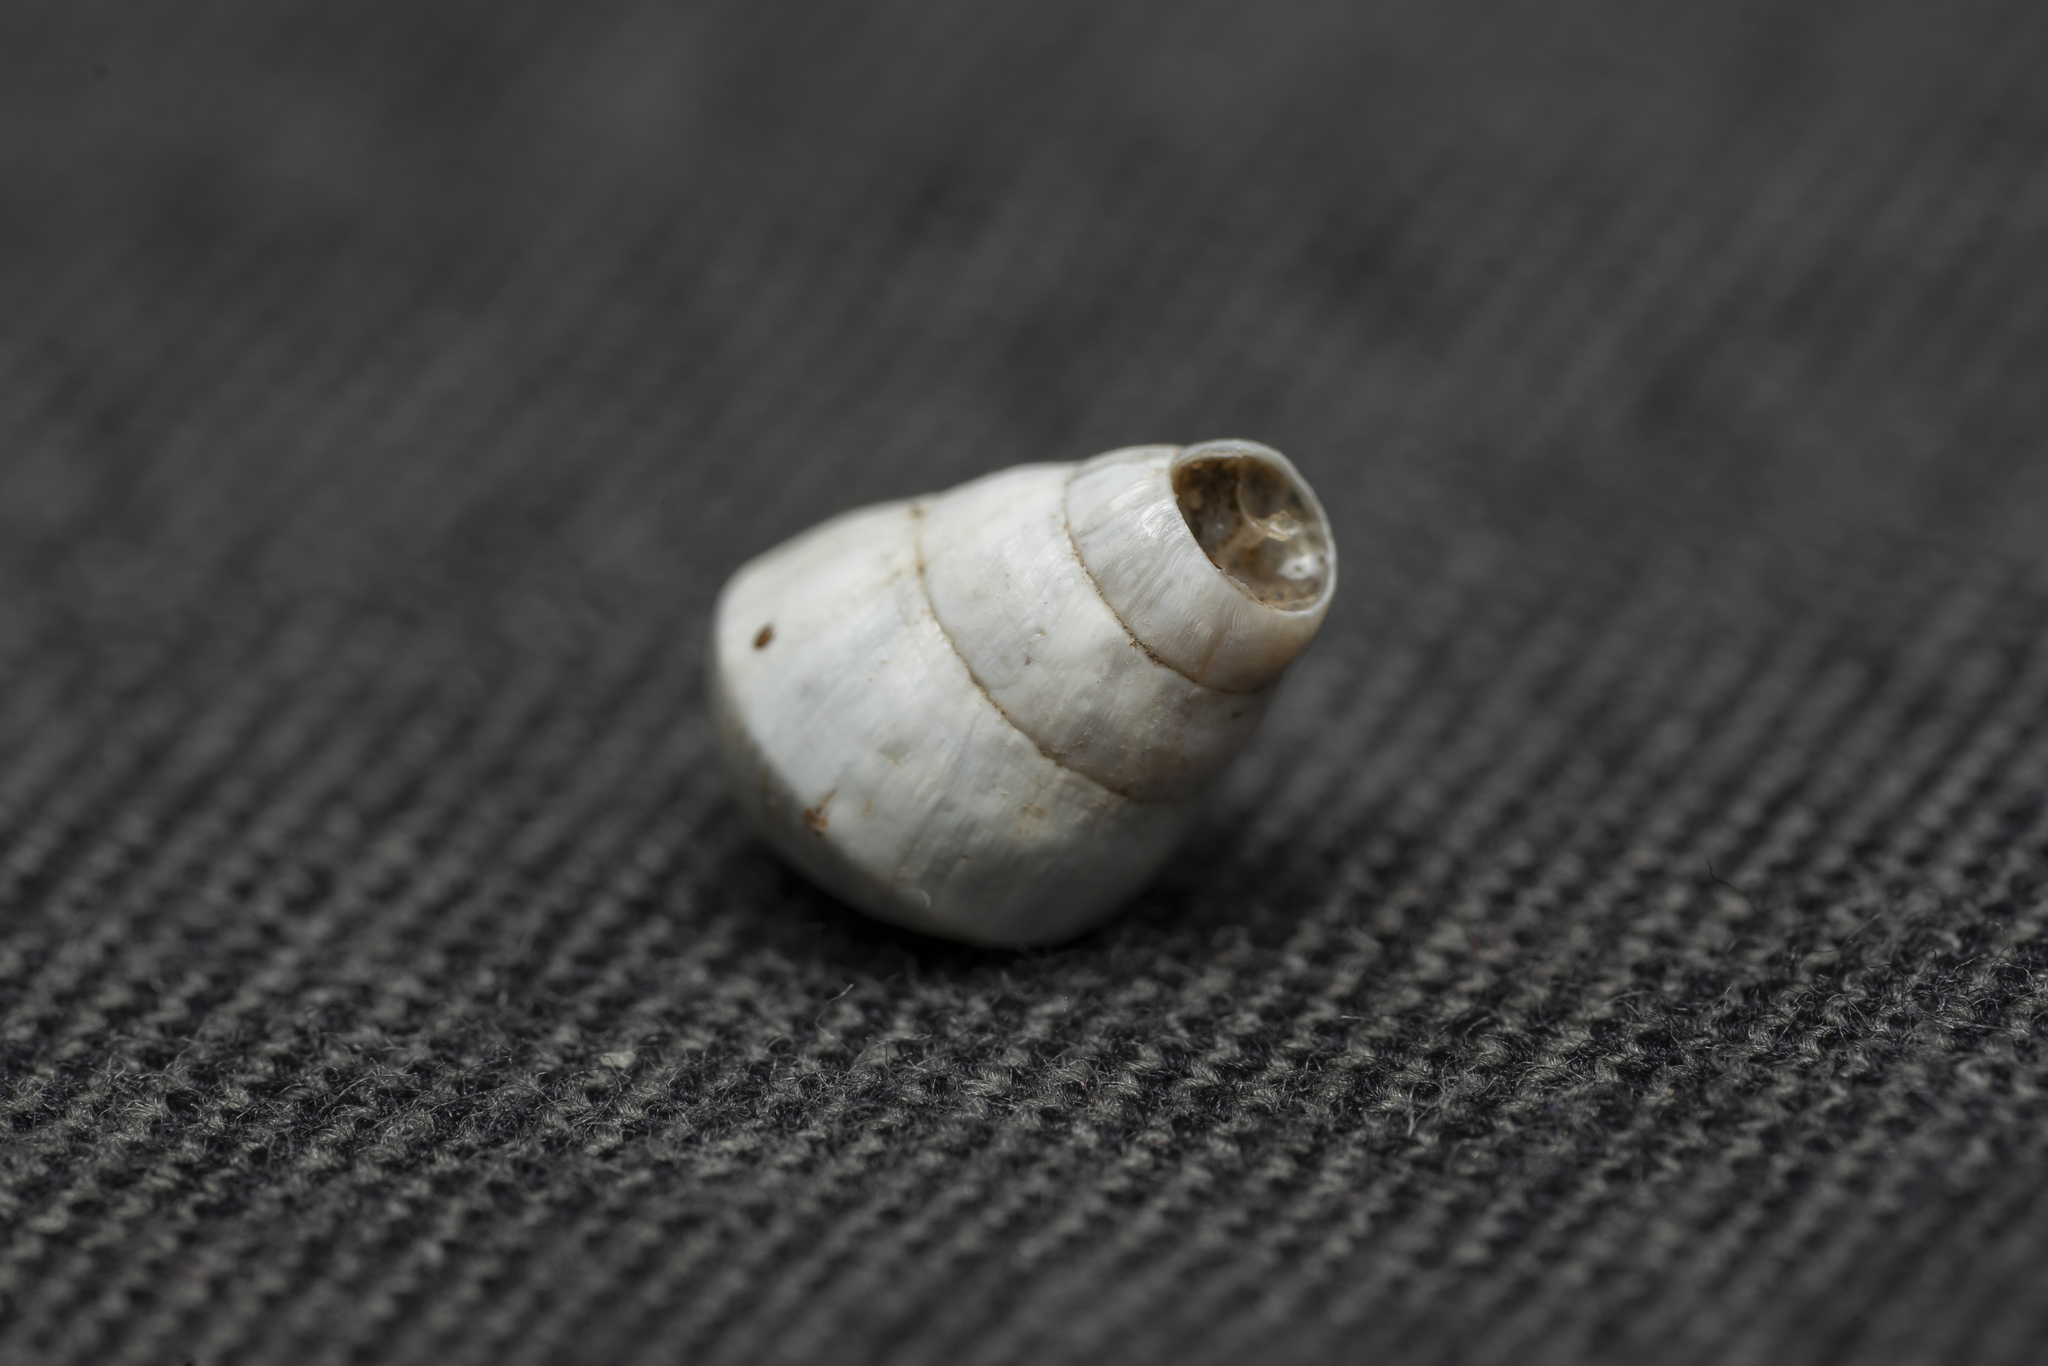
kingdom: Animalia
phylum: Mollusca
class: Gastropoda
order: Stylommatophora
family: Enidae
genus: Zebrina
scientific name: Zebrina fasciolata
